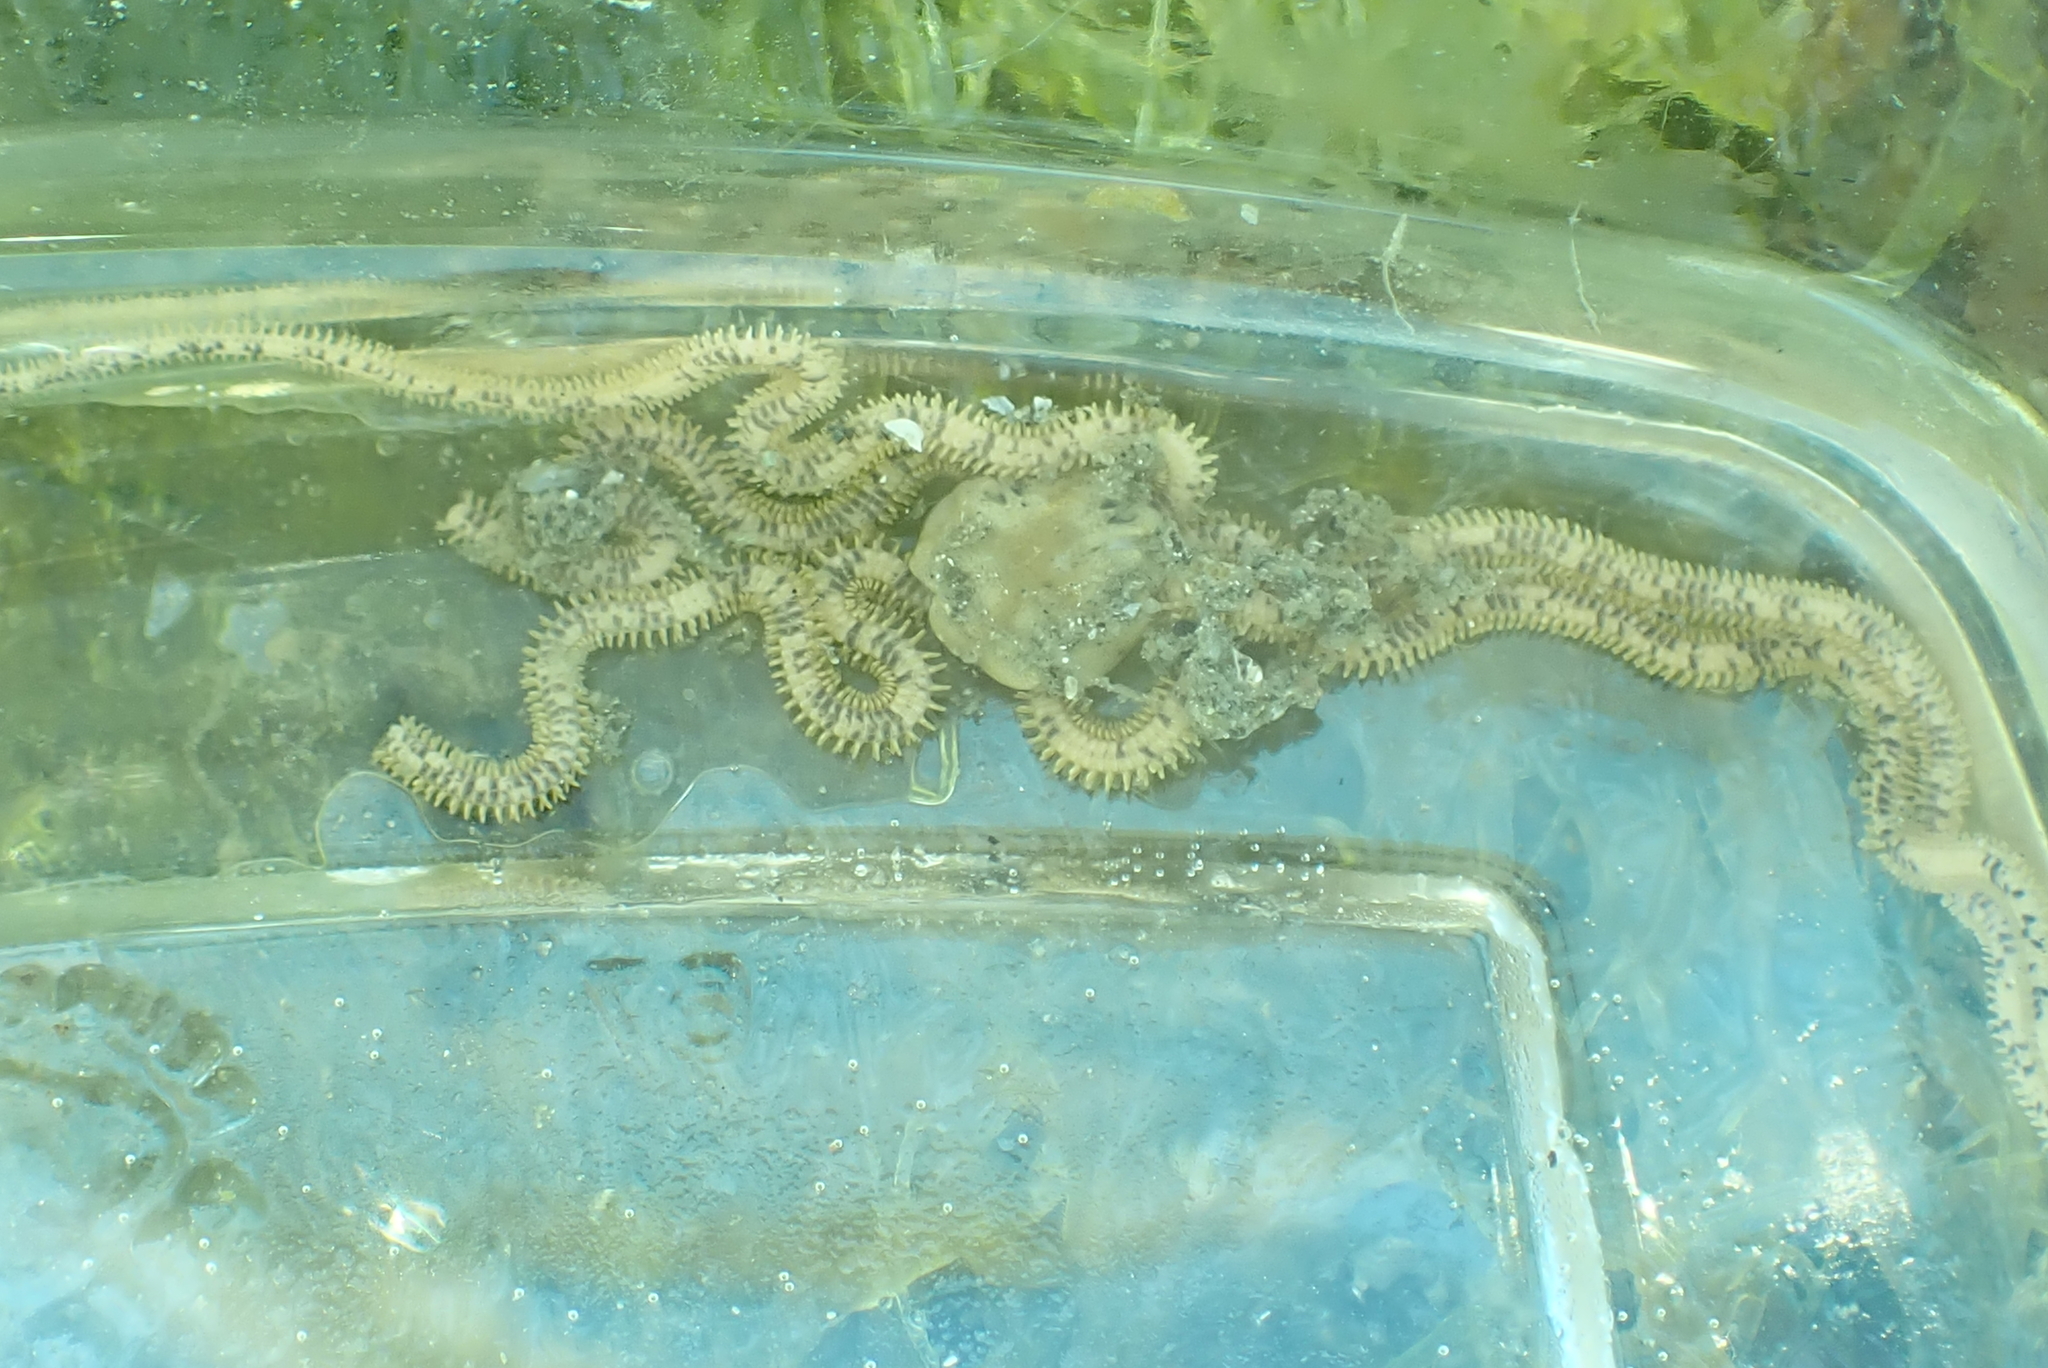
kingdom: Animalia
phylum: Echinodermata
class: Ophiuroidea
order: Amphilepidida
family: Amphiuridae
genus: Amphiodia
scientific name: Amphiodia occidentalis
